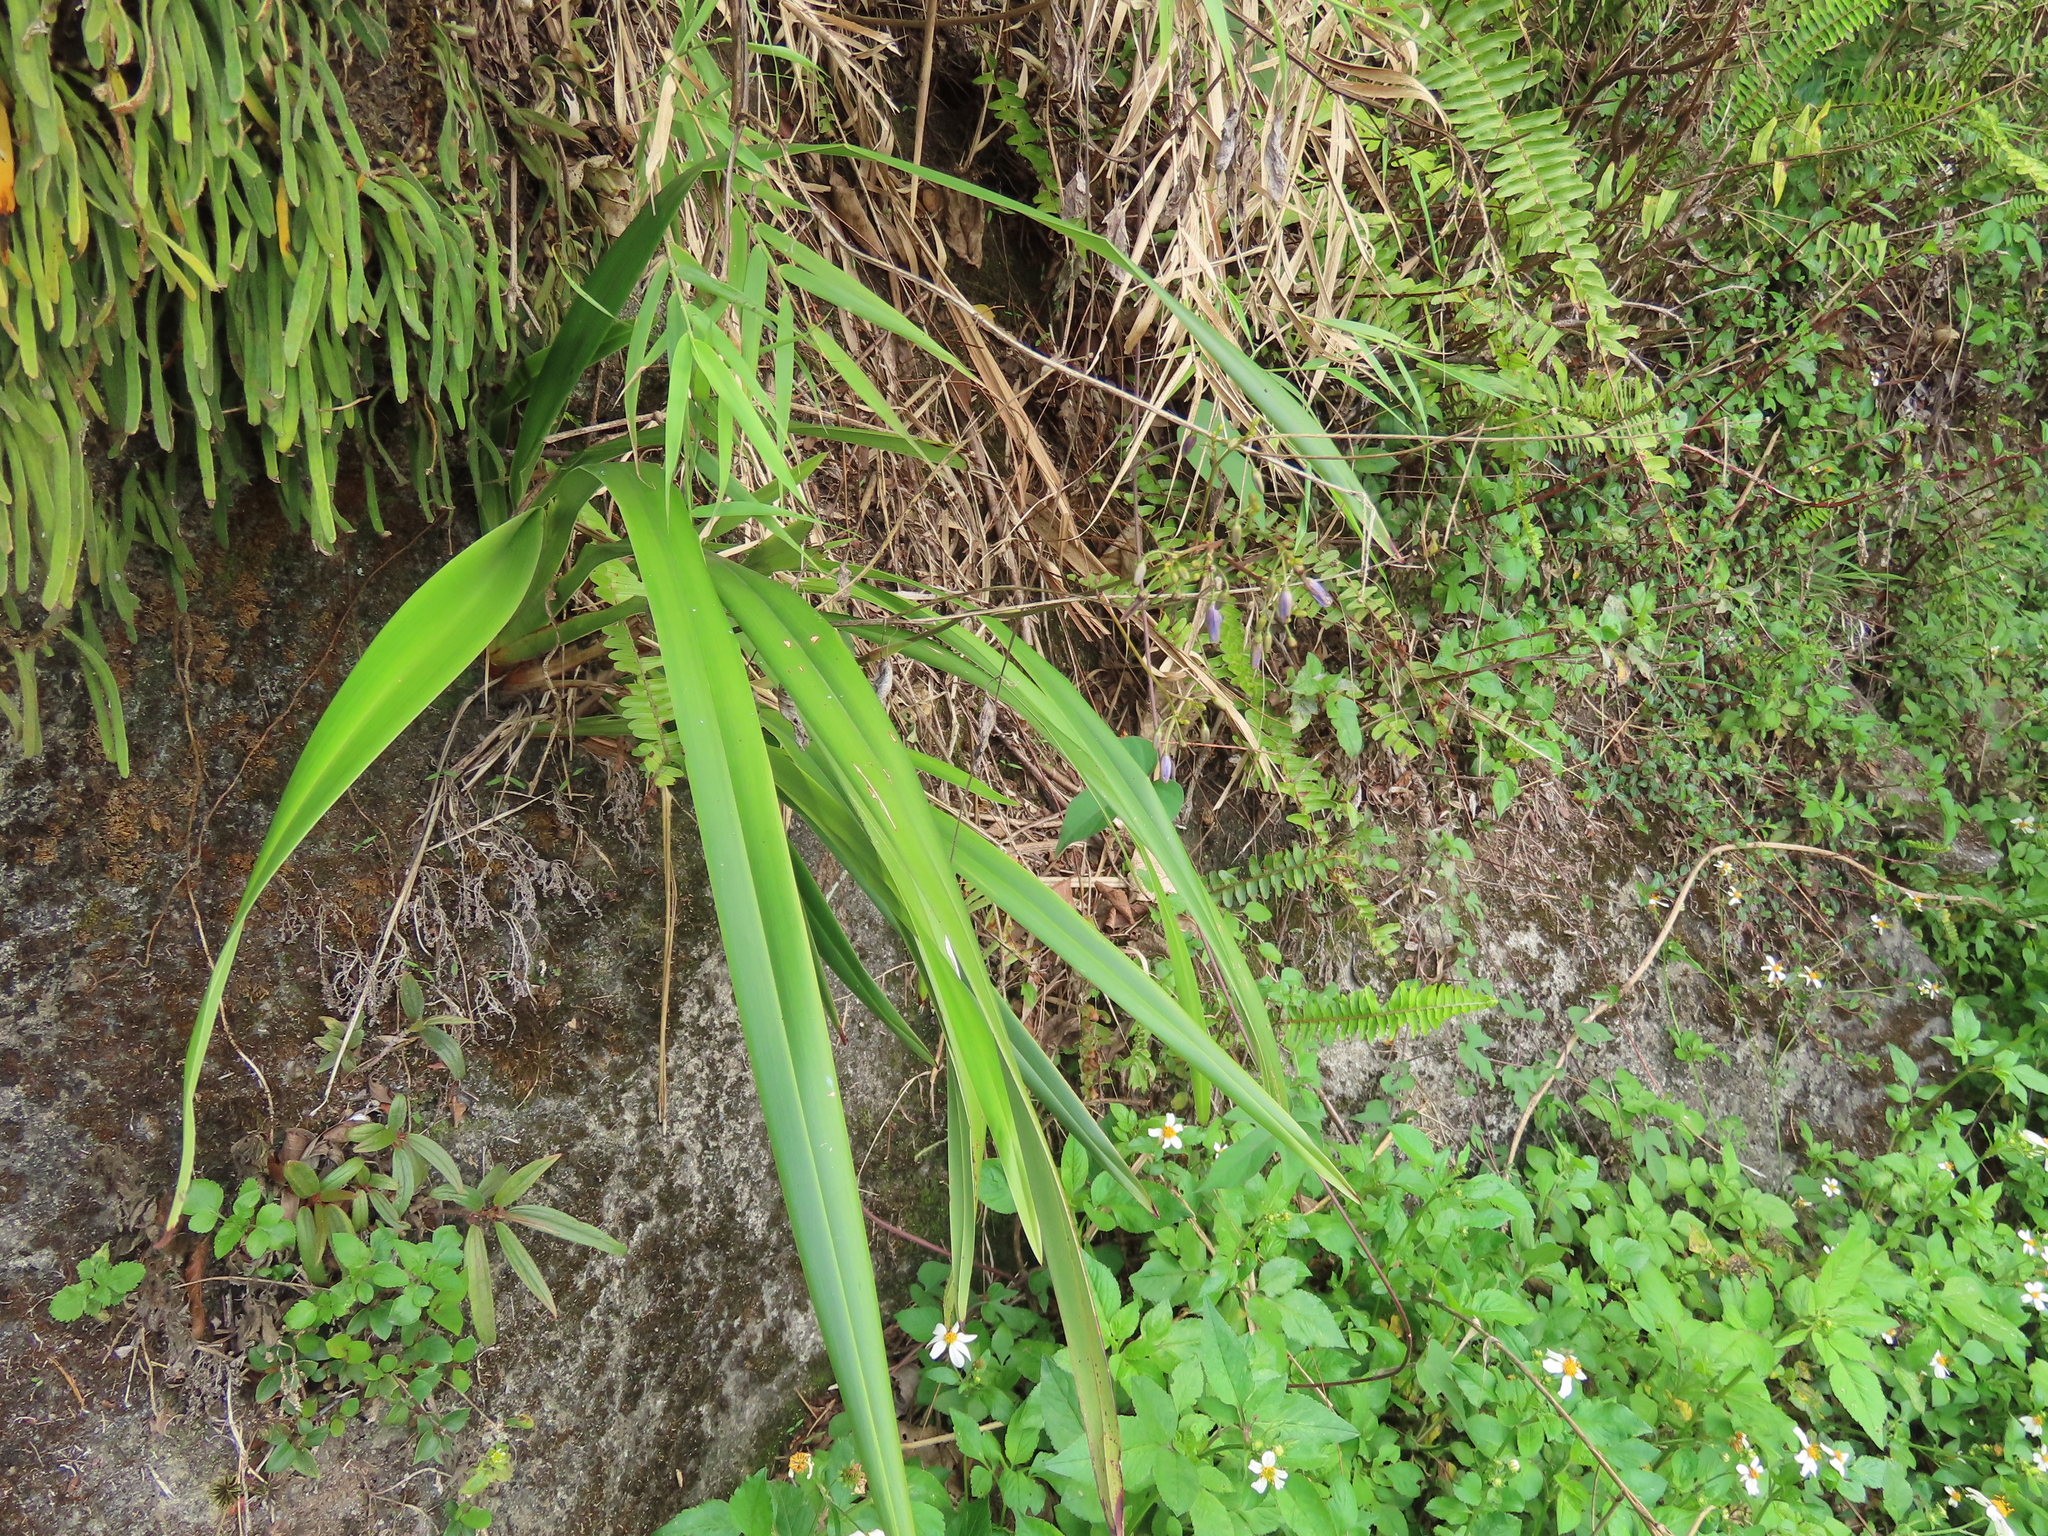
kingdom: Plantae
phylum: Tracheophyta
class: Liliopsida
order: Asparagales
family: Asphodelaceae
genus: Dianella
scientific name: Dianella ensifolia
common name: New zealand lilyplant
